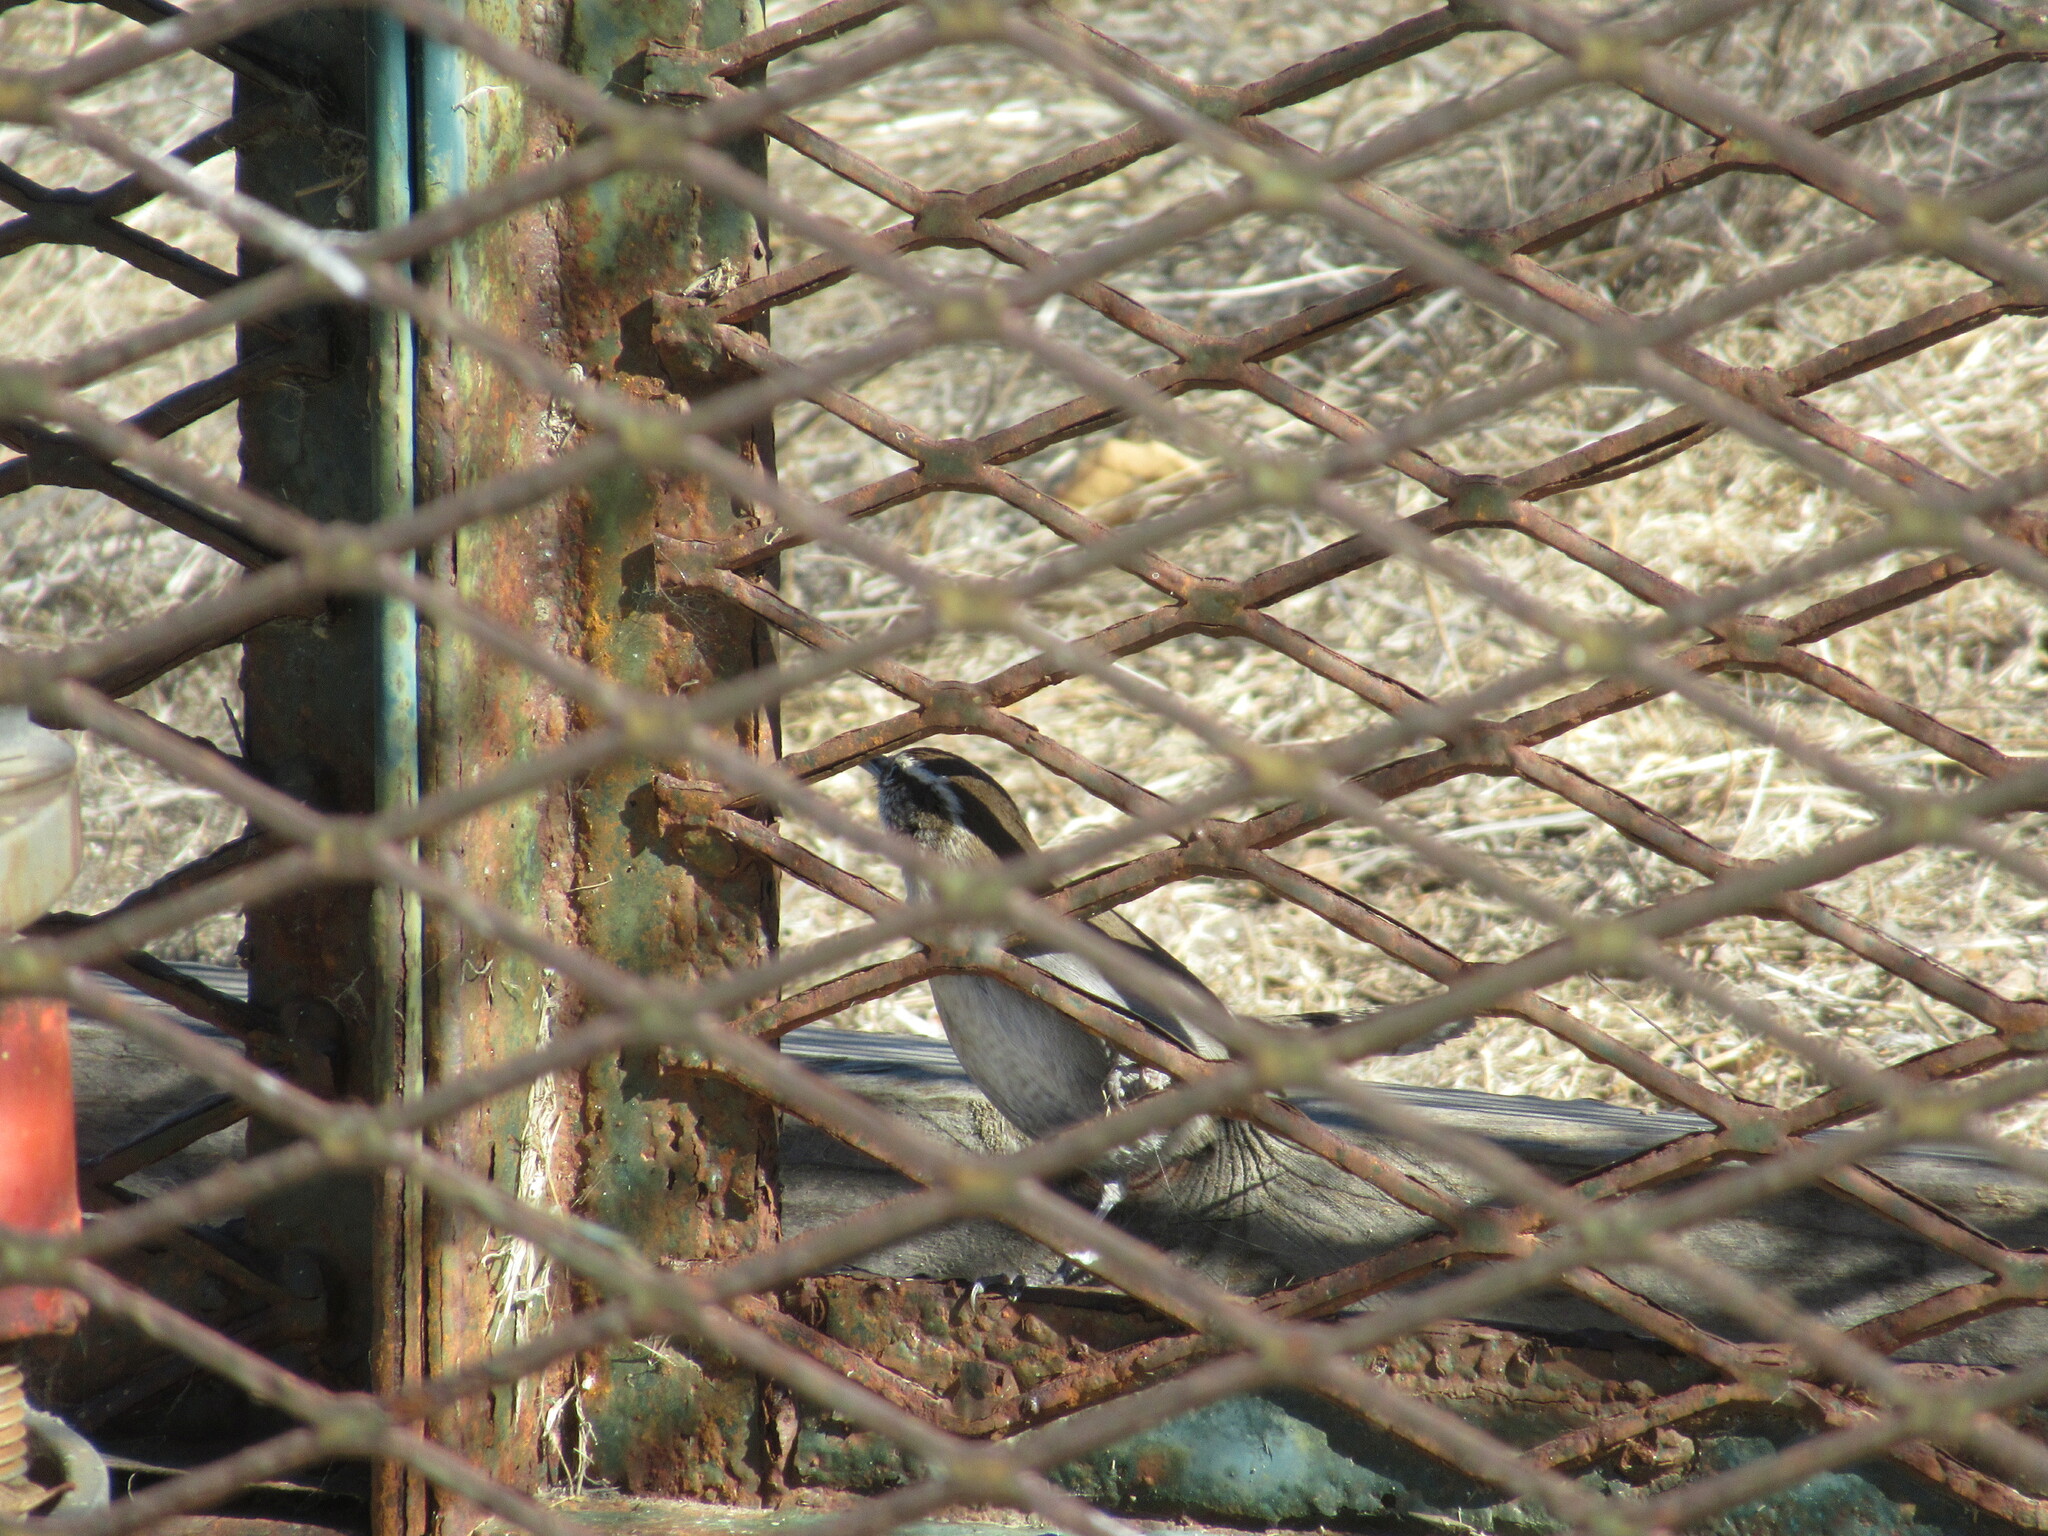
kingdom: Animalia
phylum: Chordata
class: Aves
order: Passeriformes
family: Troglodytidae
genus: Thryomanes
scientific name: Thryomanes bewickii
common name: Bewick's wren
